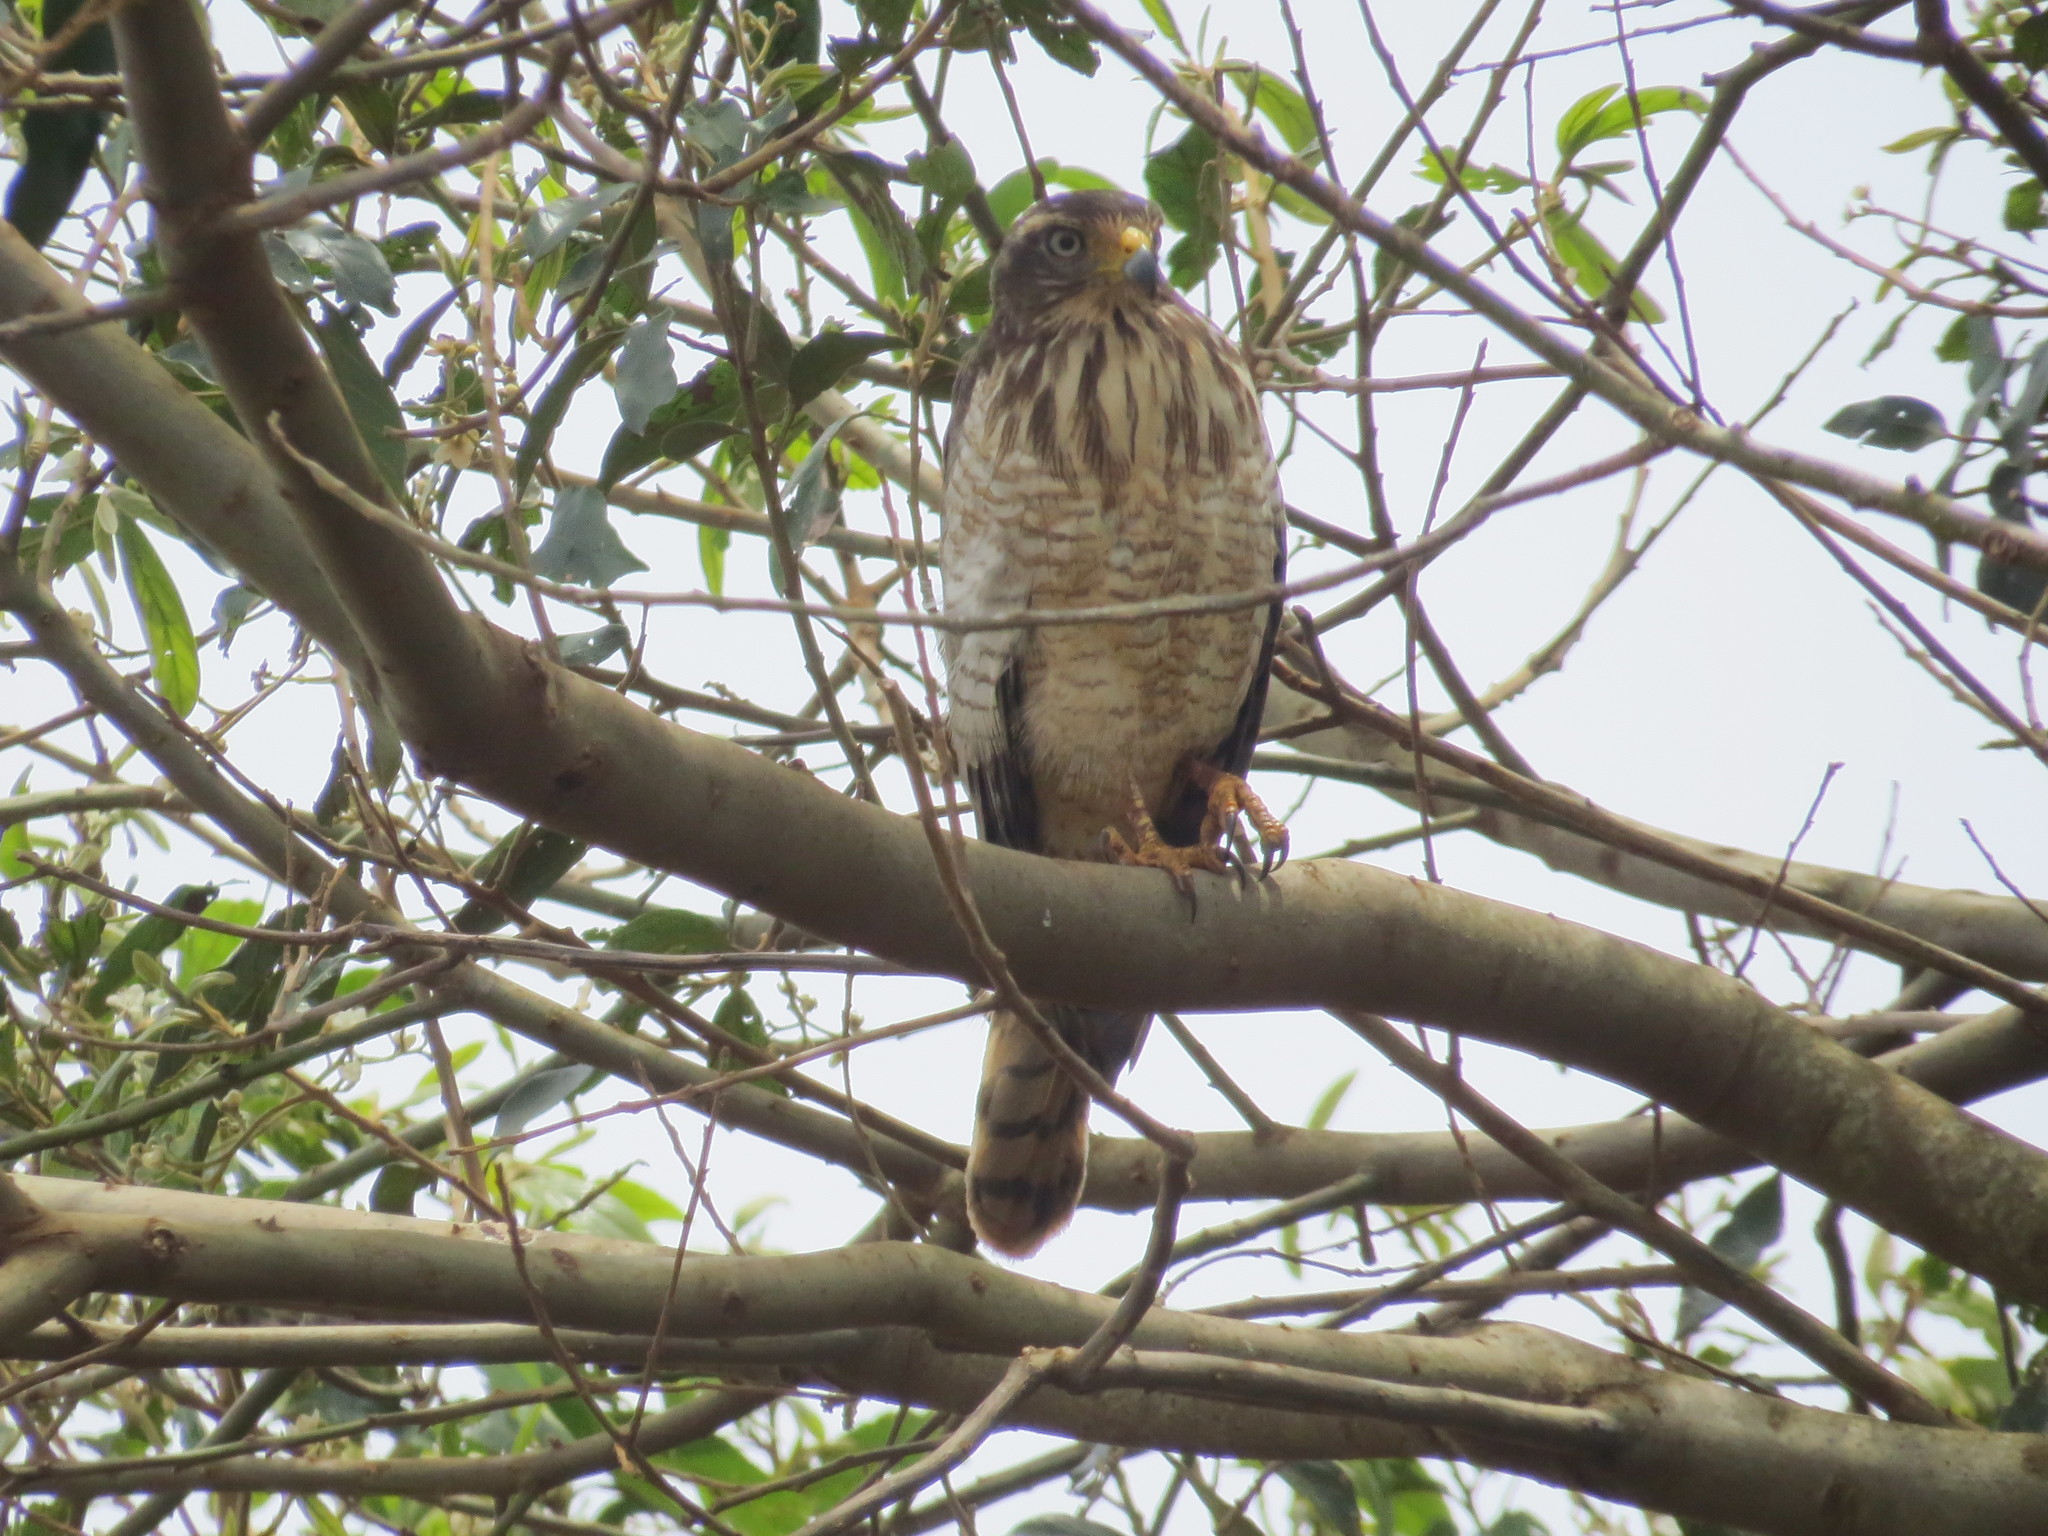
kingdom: Animalia
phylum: Chordata
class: Aves
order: Accipitriformes
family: Accipitridae
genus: Rupornis
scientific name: Rupornis magnirostris
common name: Roadside hawk
